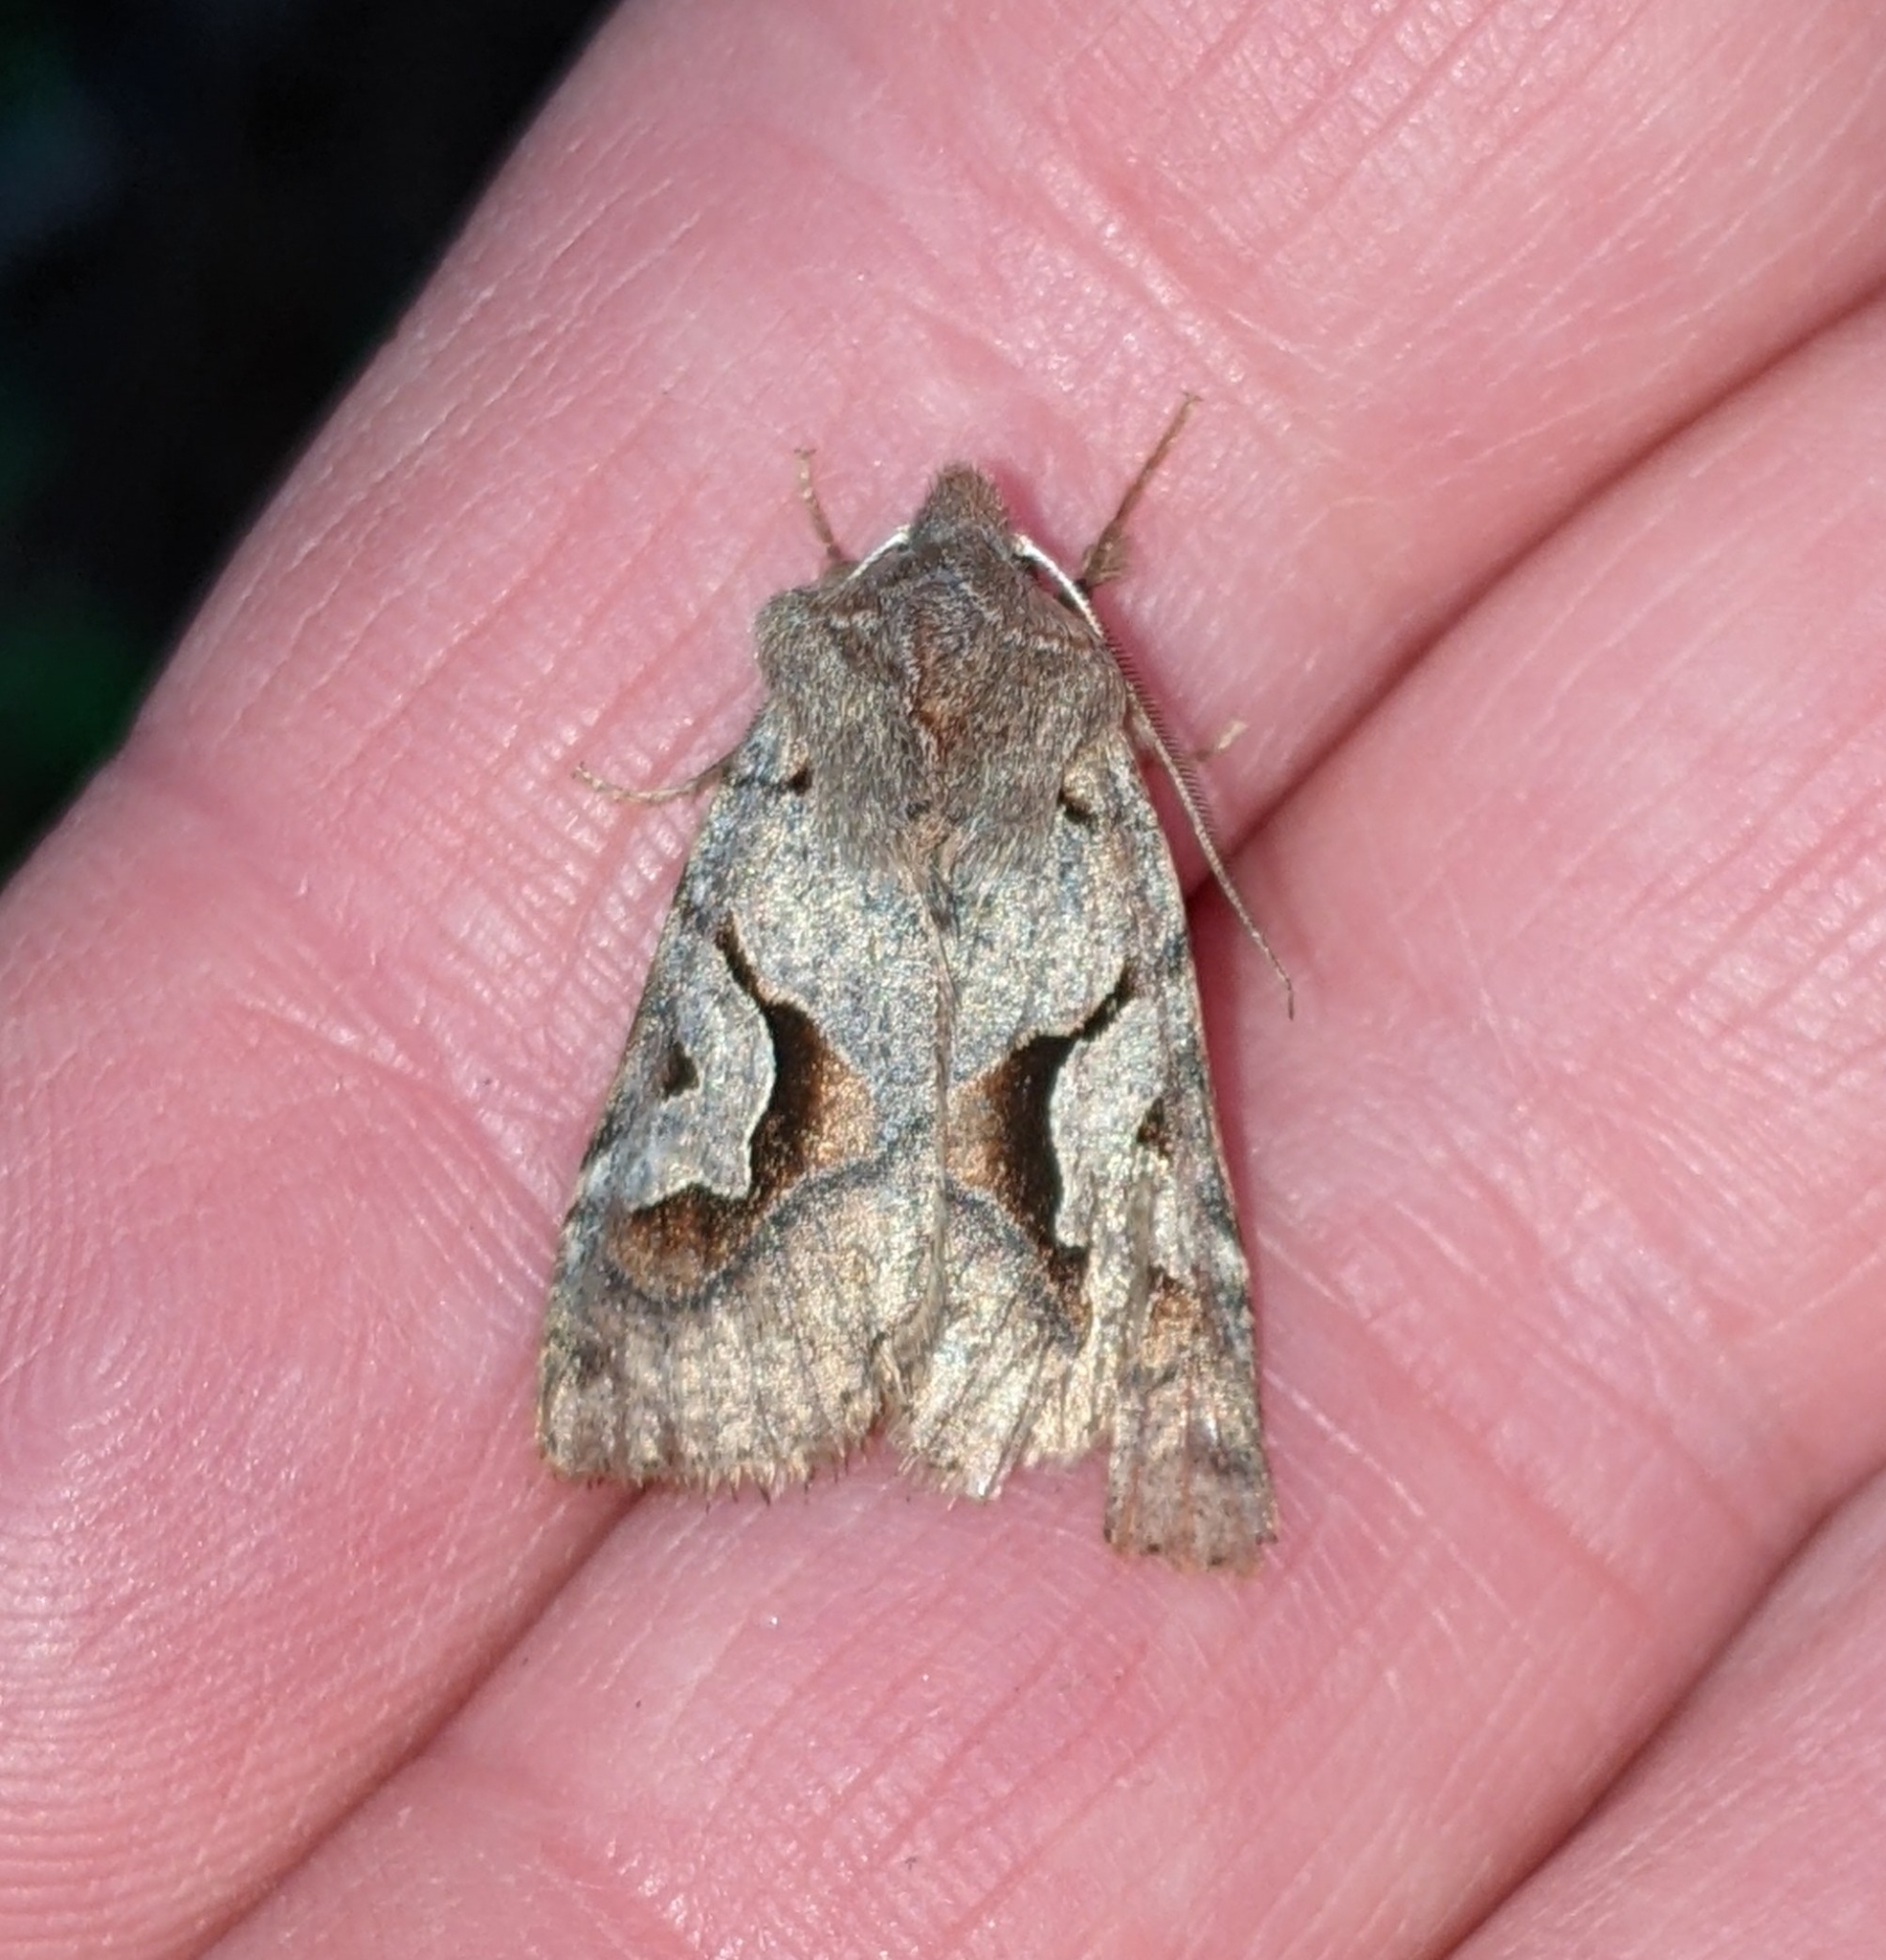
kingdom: Animalia
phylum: Arthropoda
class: Insecta
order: Lepidoptera
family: Noctuidae
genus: Acerra
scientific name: Acerra normalis
